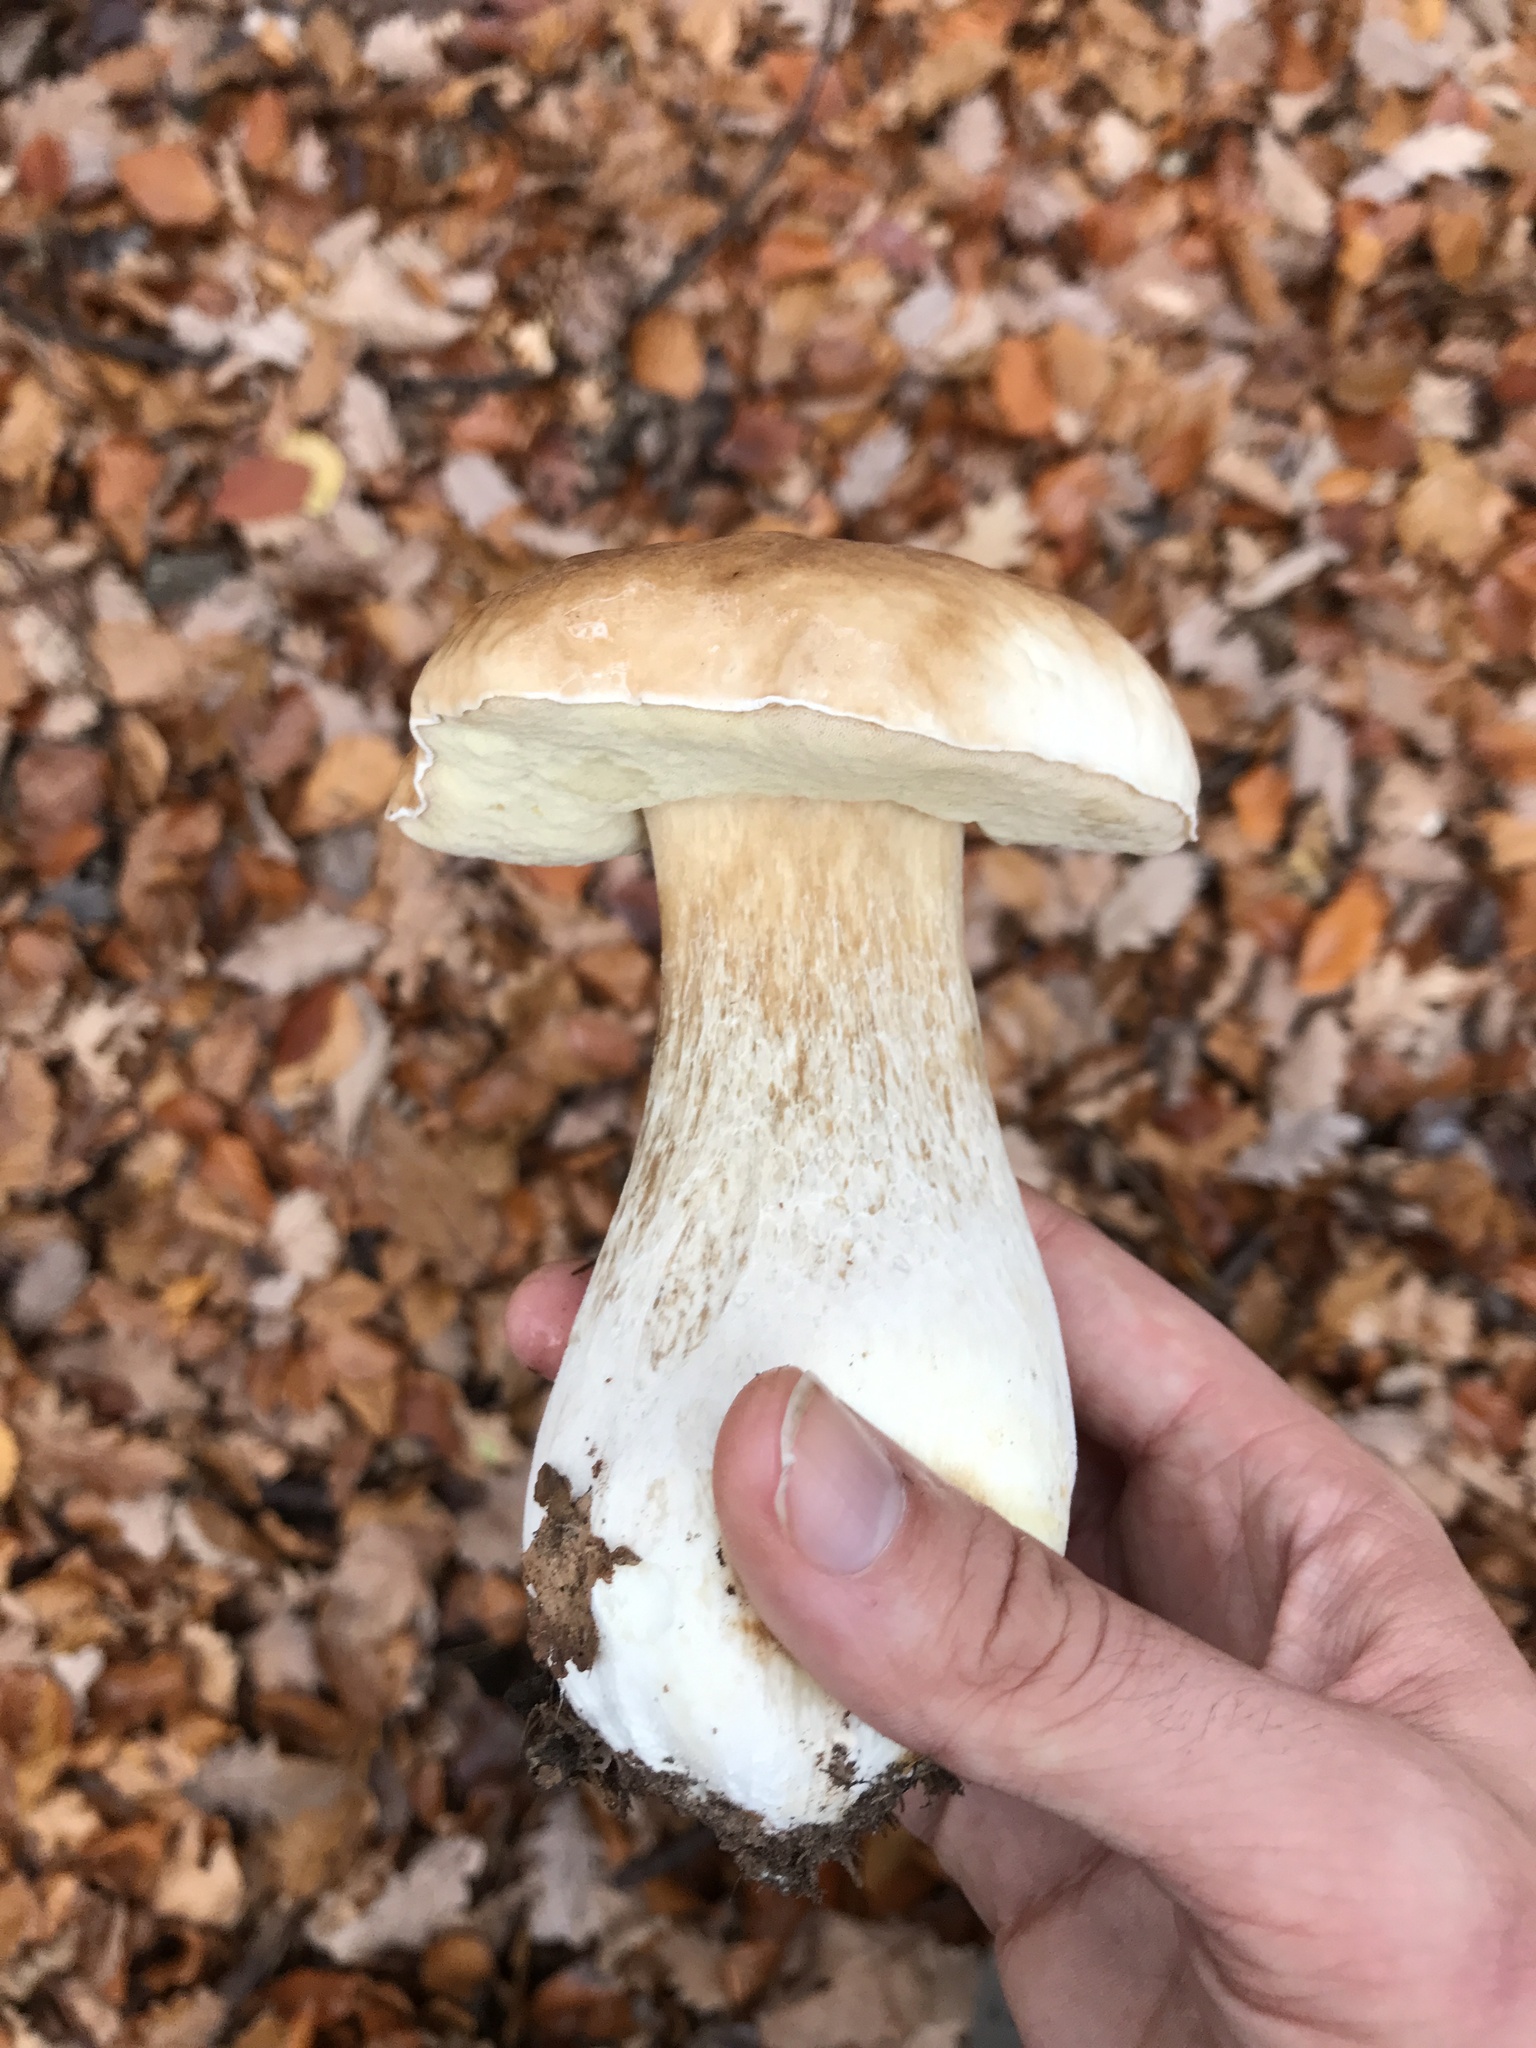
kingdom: Fungi
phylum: Basidiomycota
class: Agaricomycetes
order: Boletales
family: Boletaceae
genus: Boletus
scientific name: Boletus edulis
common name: Cep
